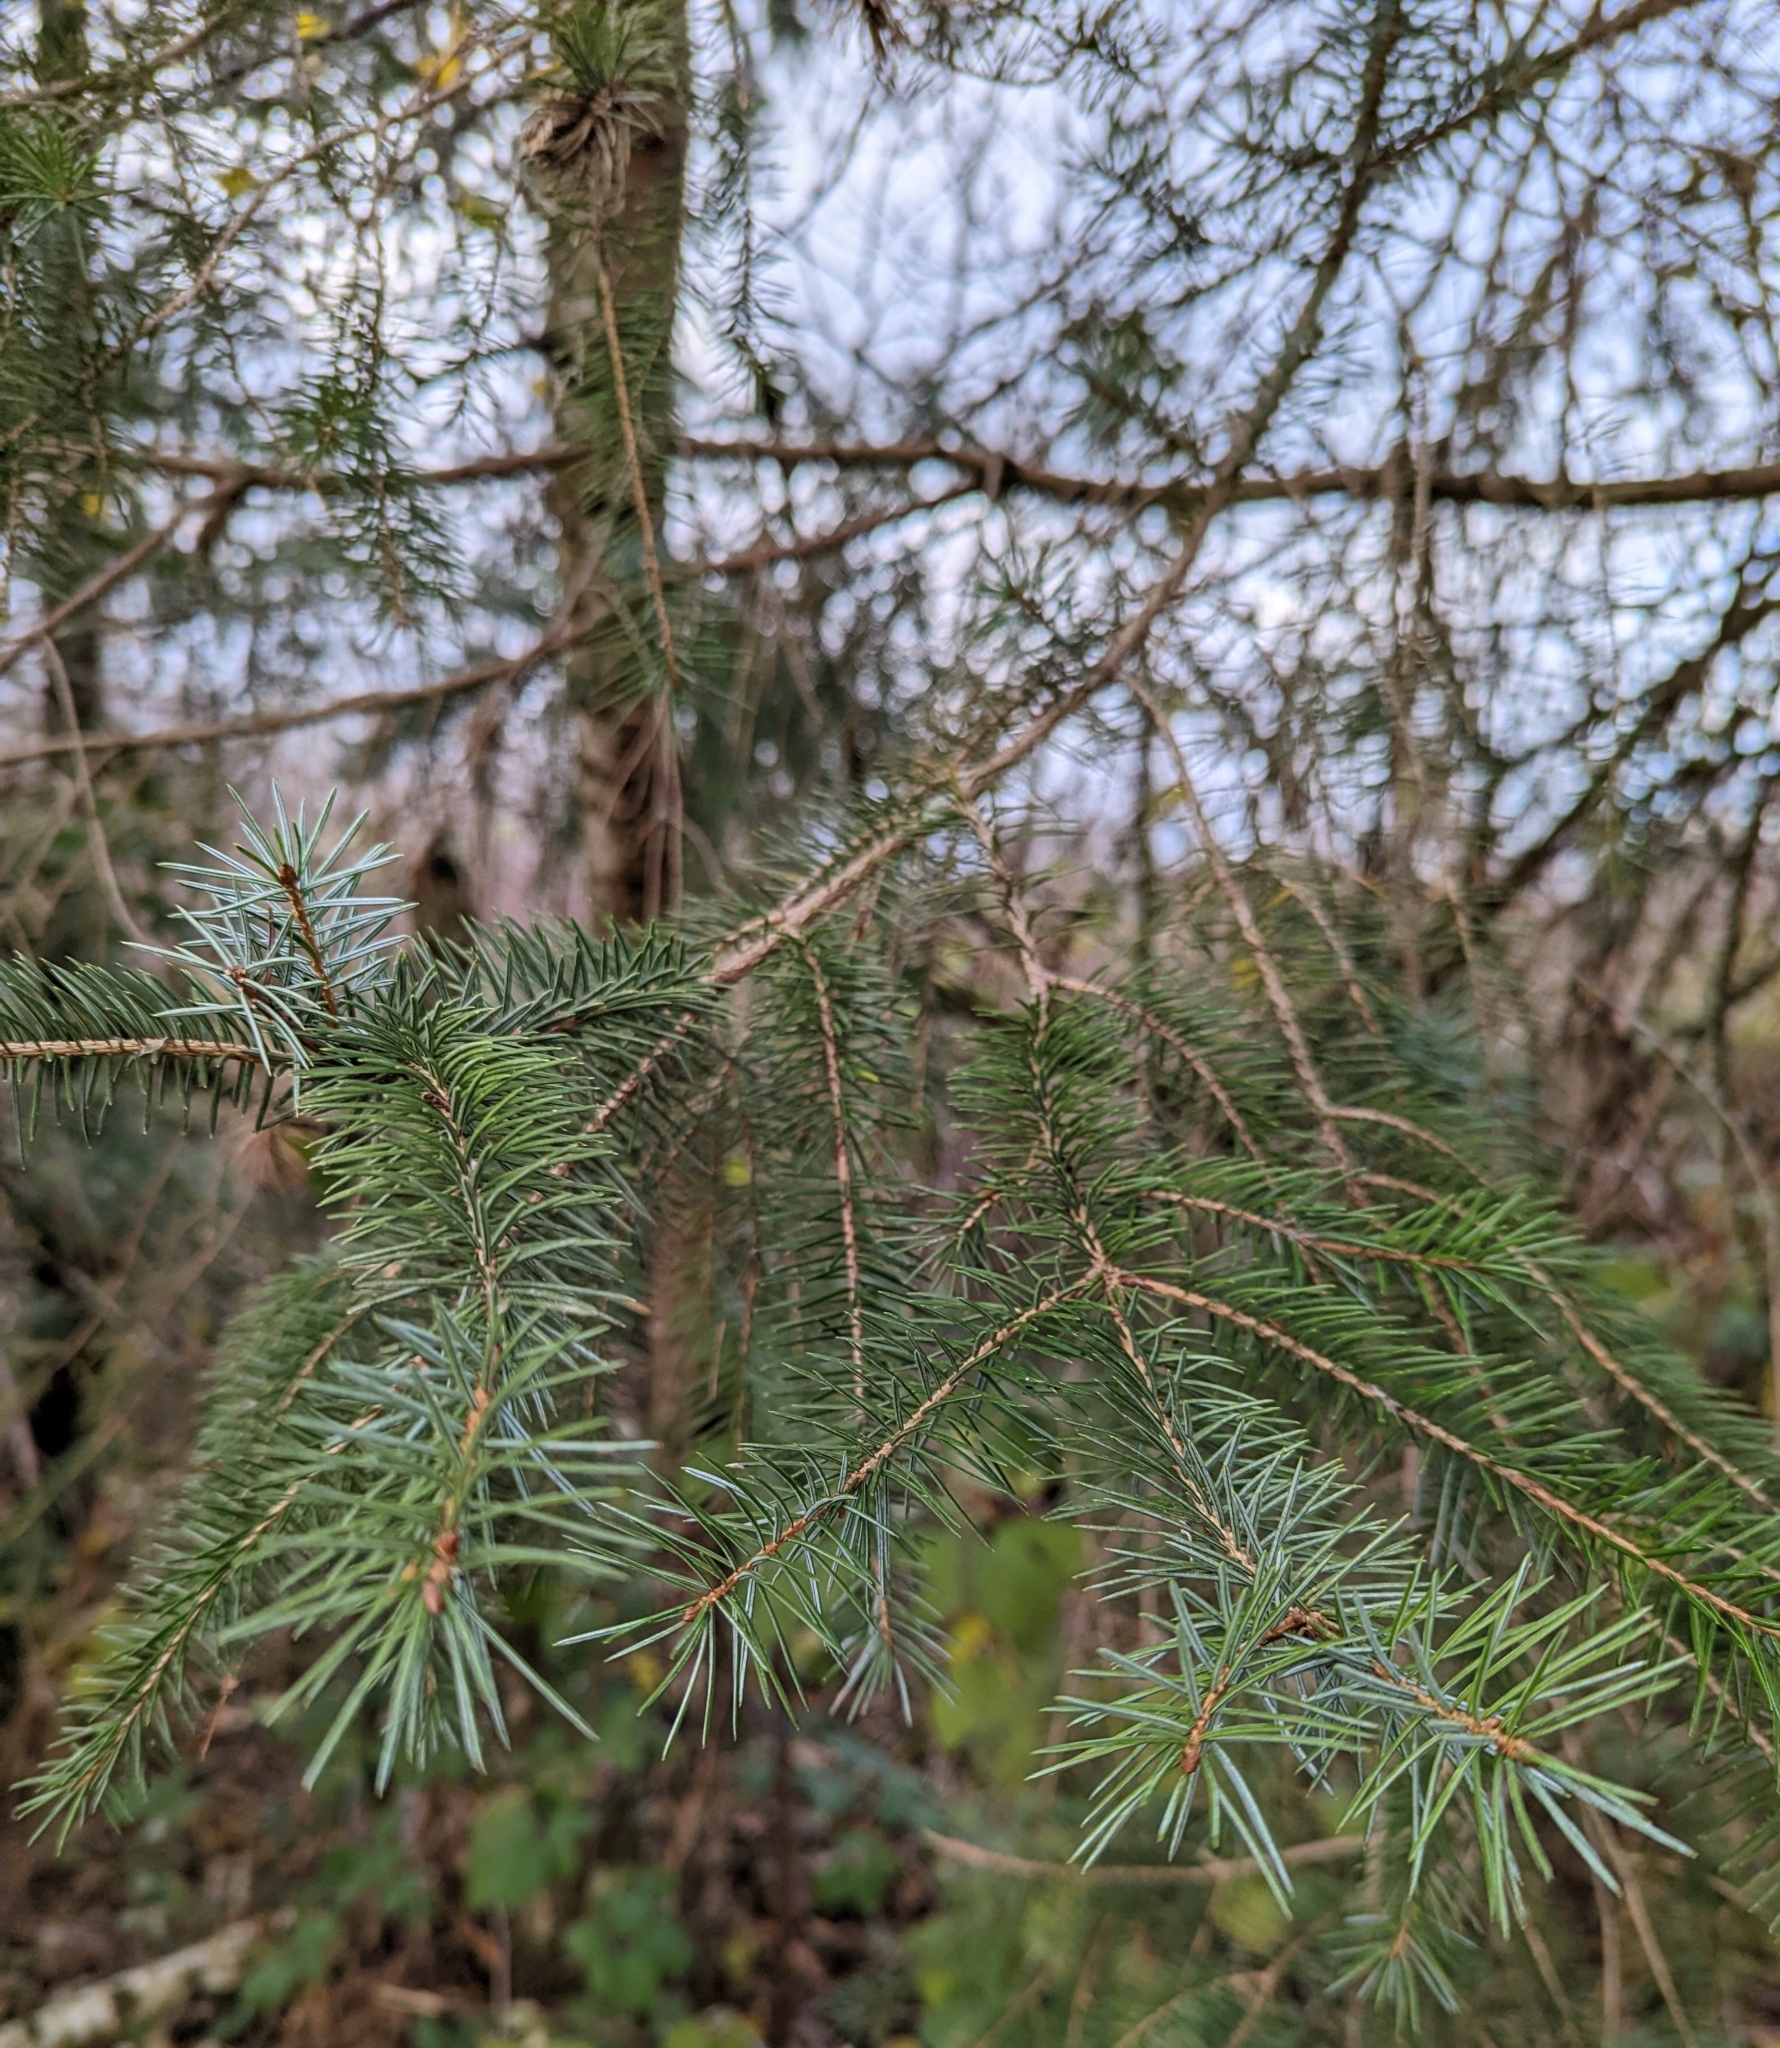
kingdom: Plantae
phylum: Tracheophyta
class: Pinopsida
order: Pinales
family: Pinaceae
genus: Picea
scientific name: Picea sitchensis
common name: Sitka spruce
